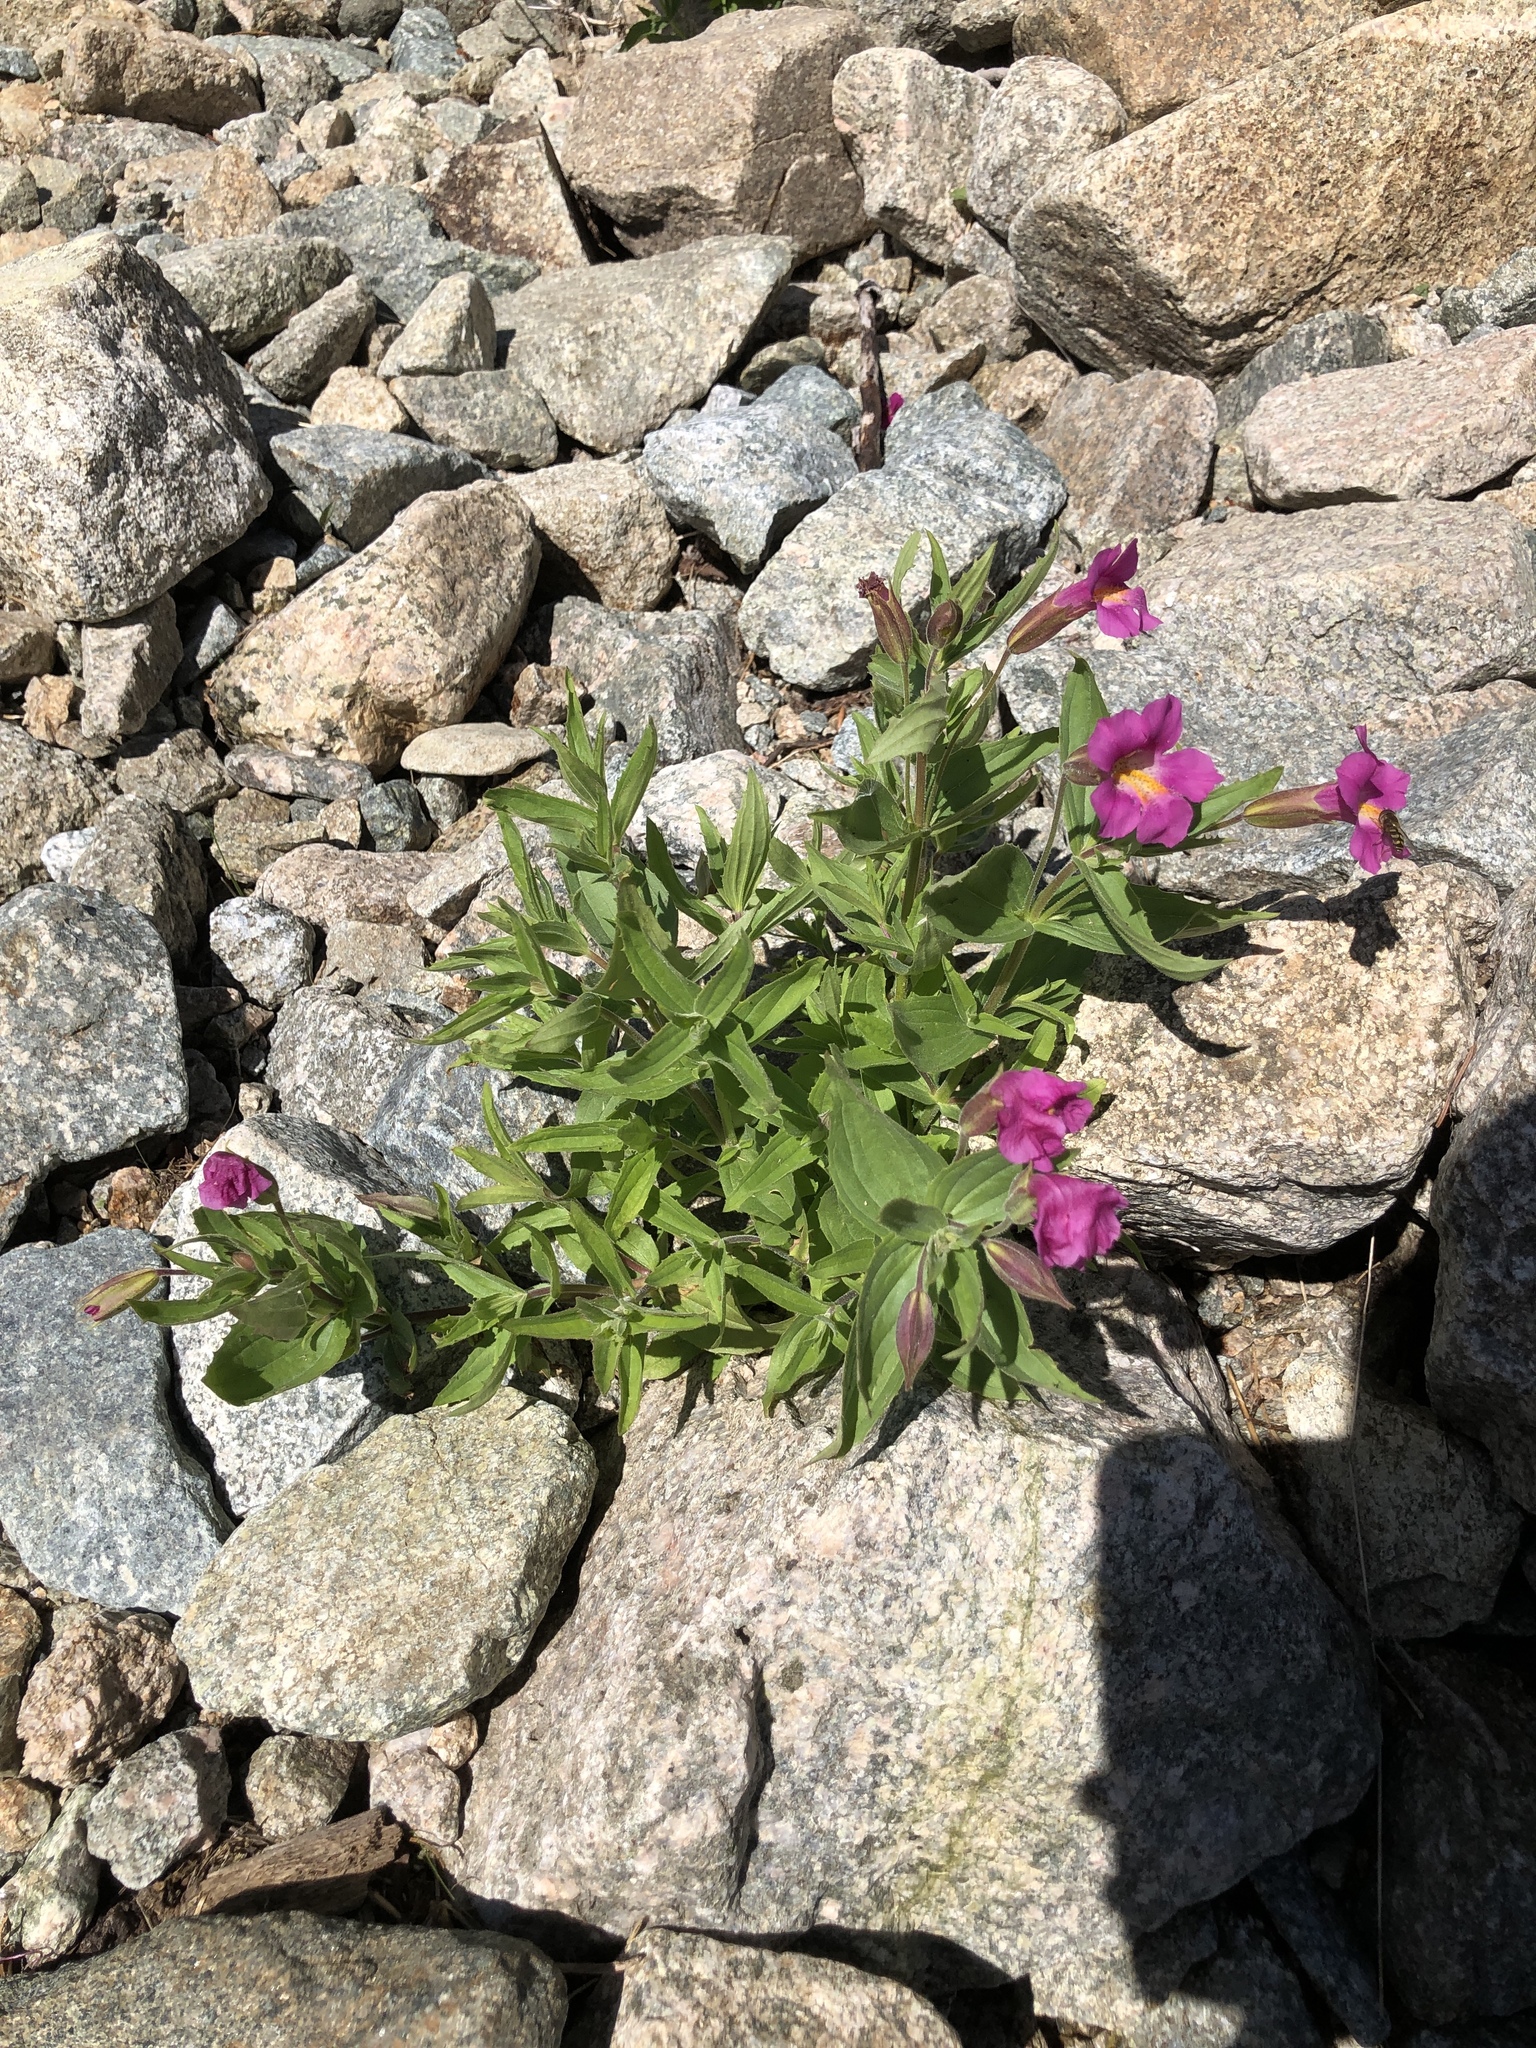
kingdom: Plantae
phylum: Tracheophyta
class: Magnoliopsida
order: Lamiales
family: Phrymaceae
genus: Erythranthe
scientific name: Erythranthe lewisii
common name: Lewis's monkey-flower
